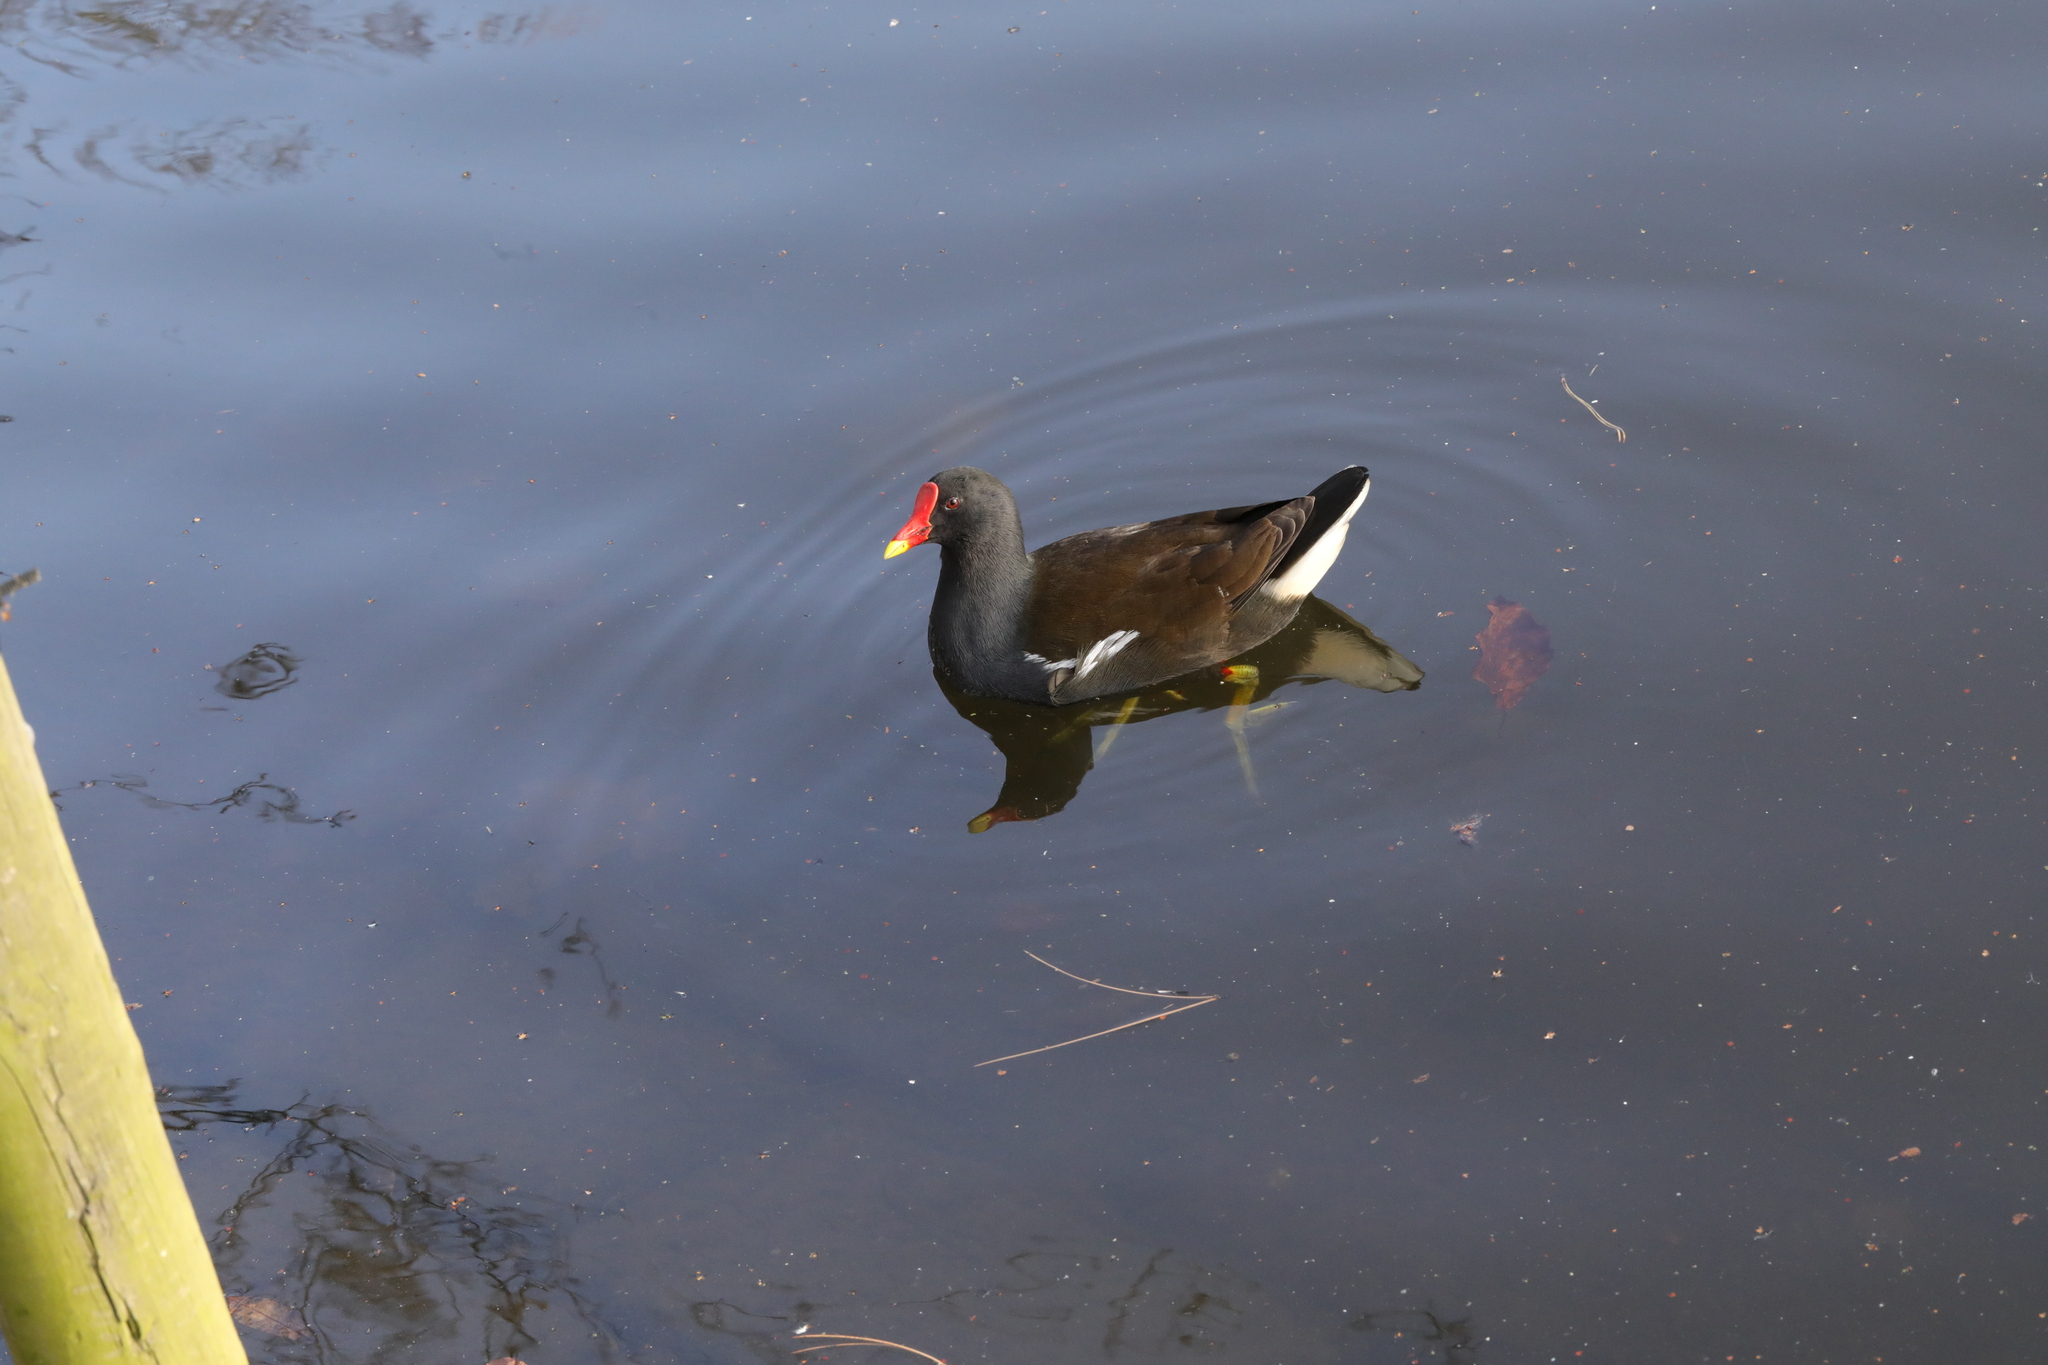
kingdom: Animalia
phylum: Chordata
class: Aves
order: Gruiformes
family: Rallidae
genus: Gallinula
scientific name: Gallinula chloropus
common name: Common moorhen
